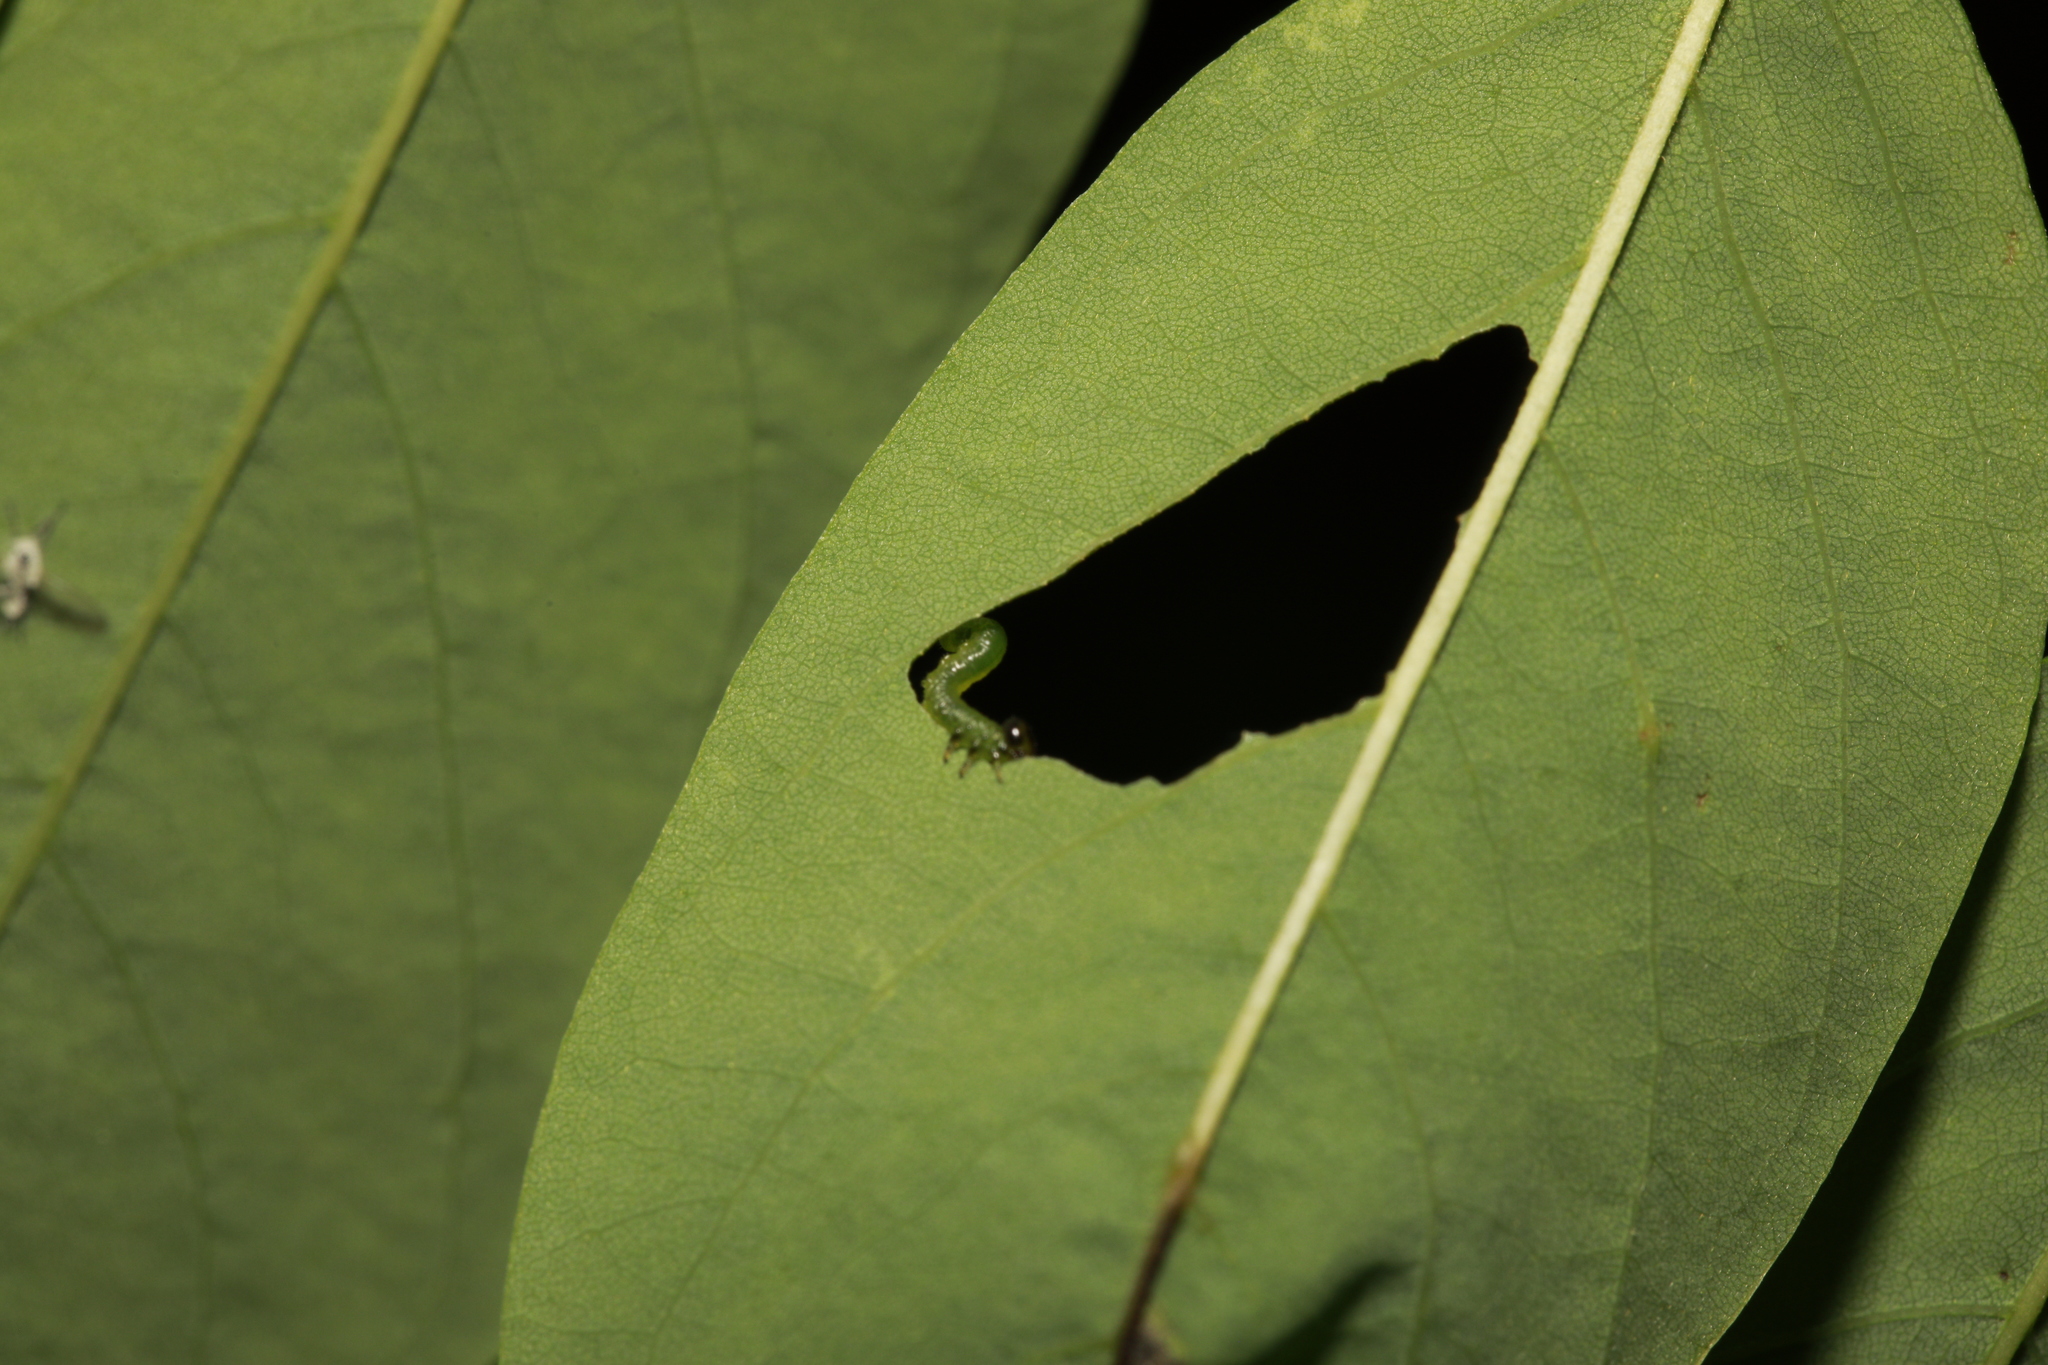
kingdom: Animalia
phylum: Arthropoda
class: Insecta
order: Hymenoptera
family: Tenthredinidae
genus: Euura
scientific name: Euura tibialis
